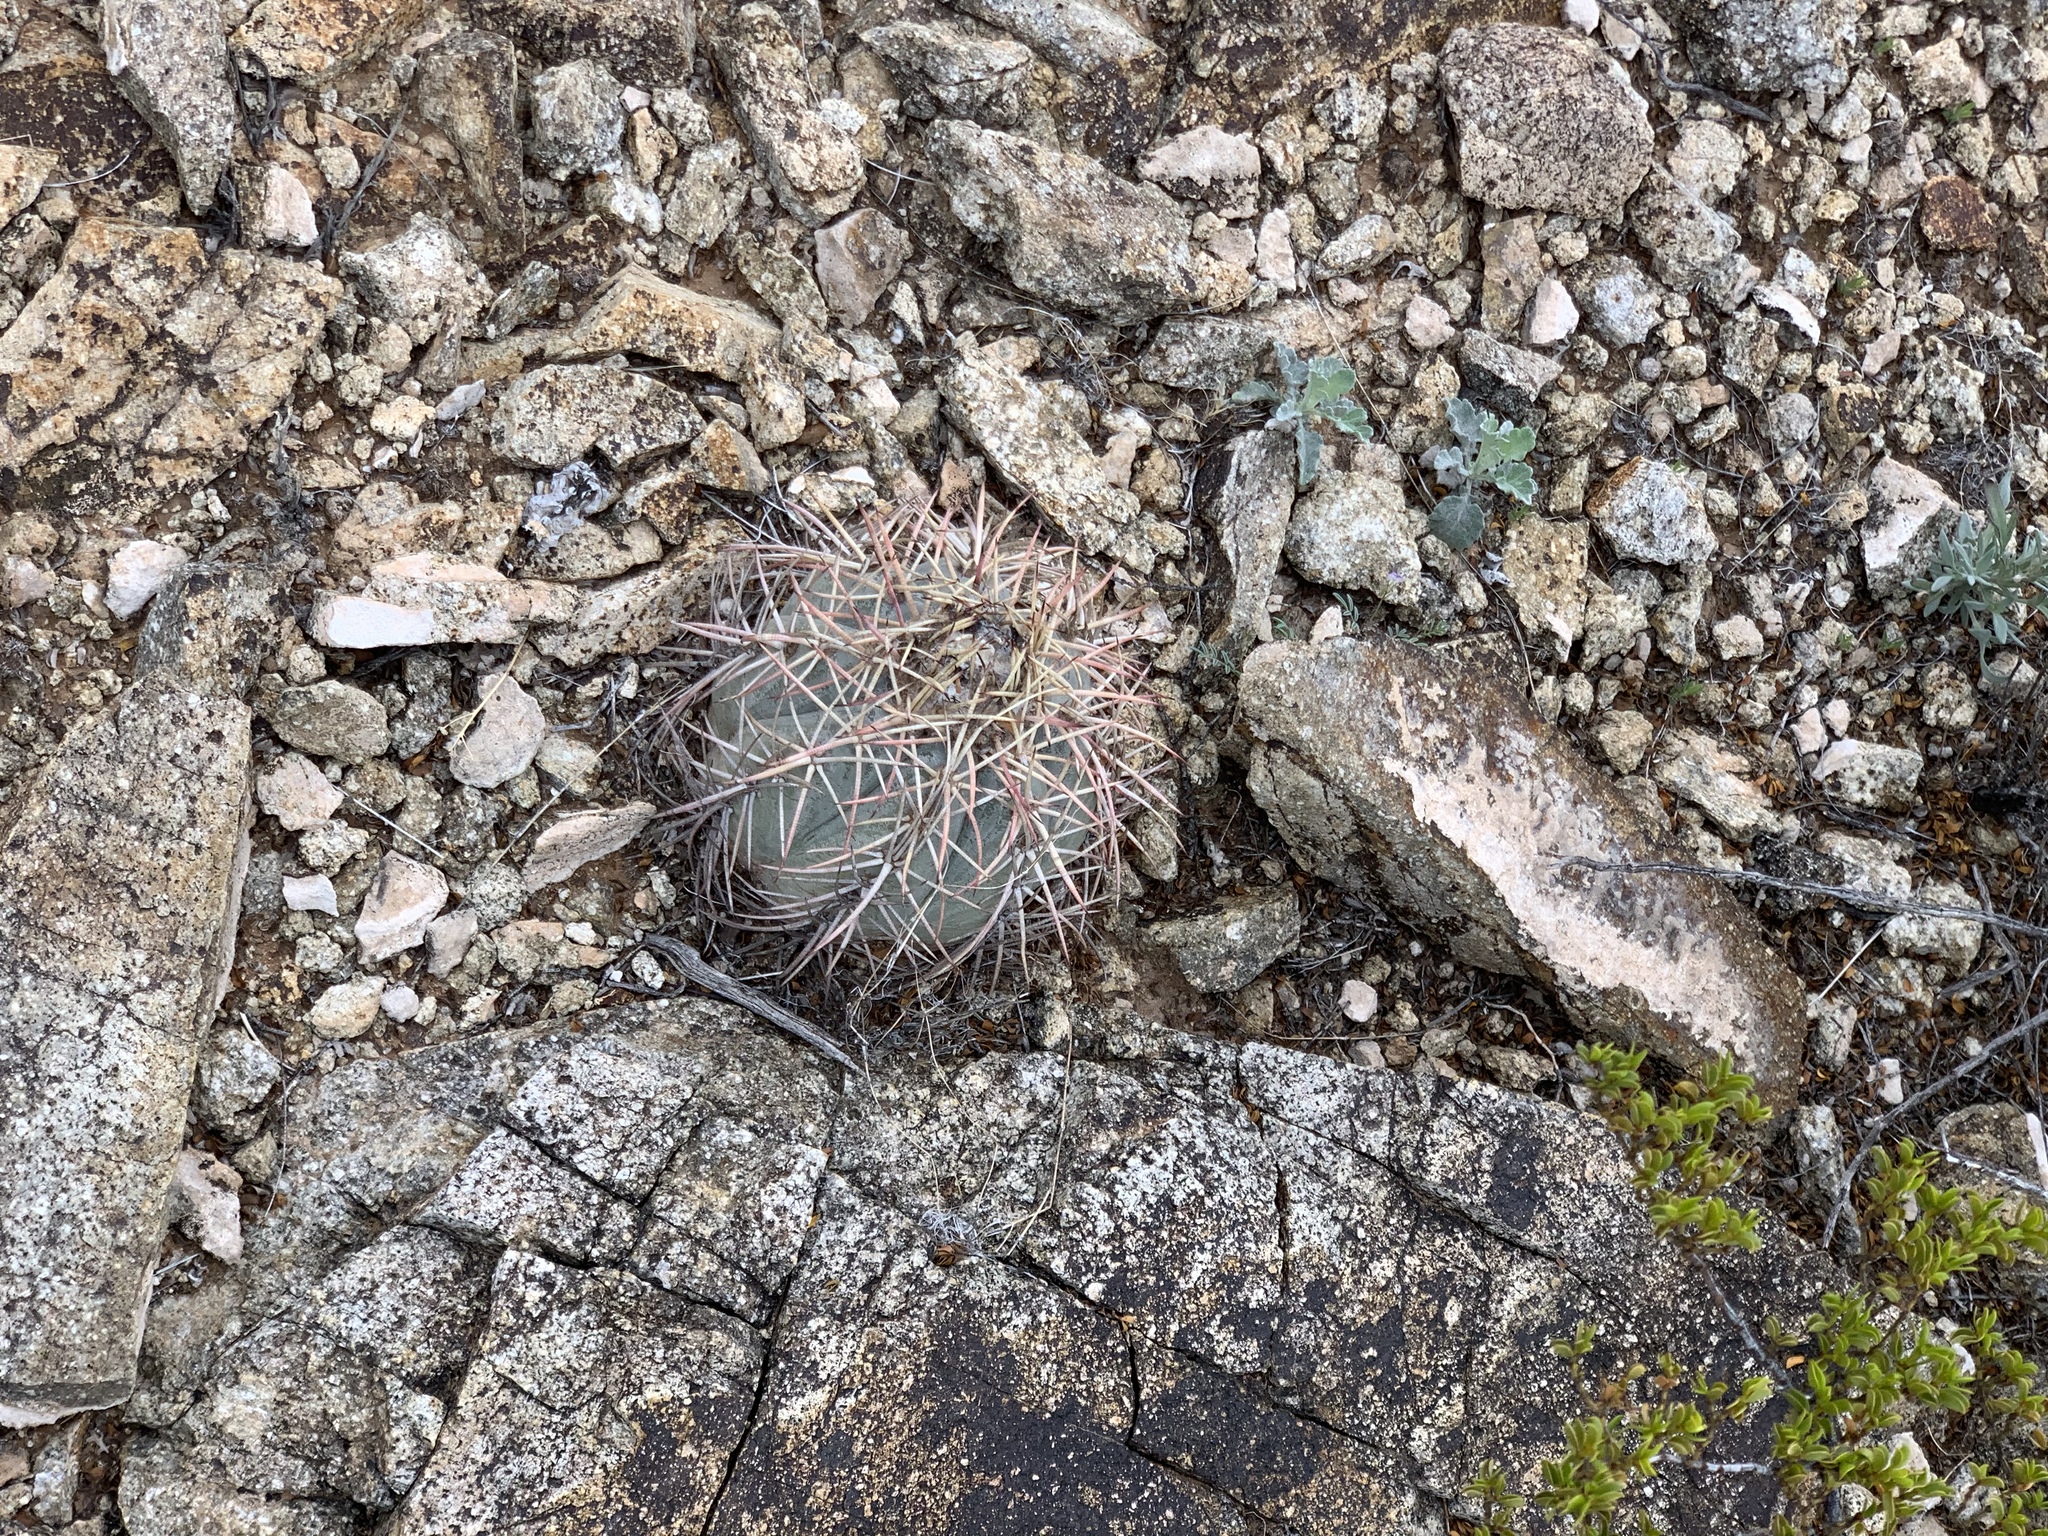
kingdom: Plantae
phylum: Tracheophyta
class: Magnoliopsida
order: Caryophyllales
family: Cactaceae
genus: Echinocactus
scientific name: Echinocactus horizonthalonius
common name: Devilshead
